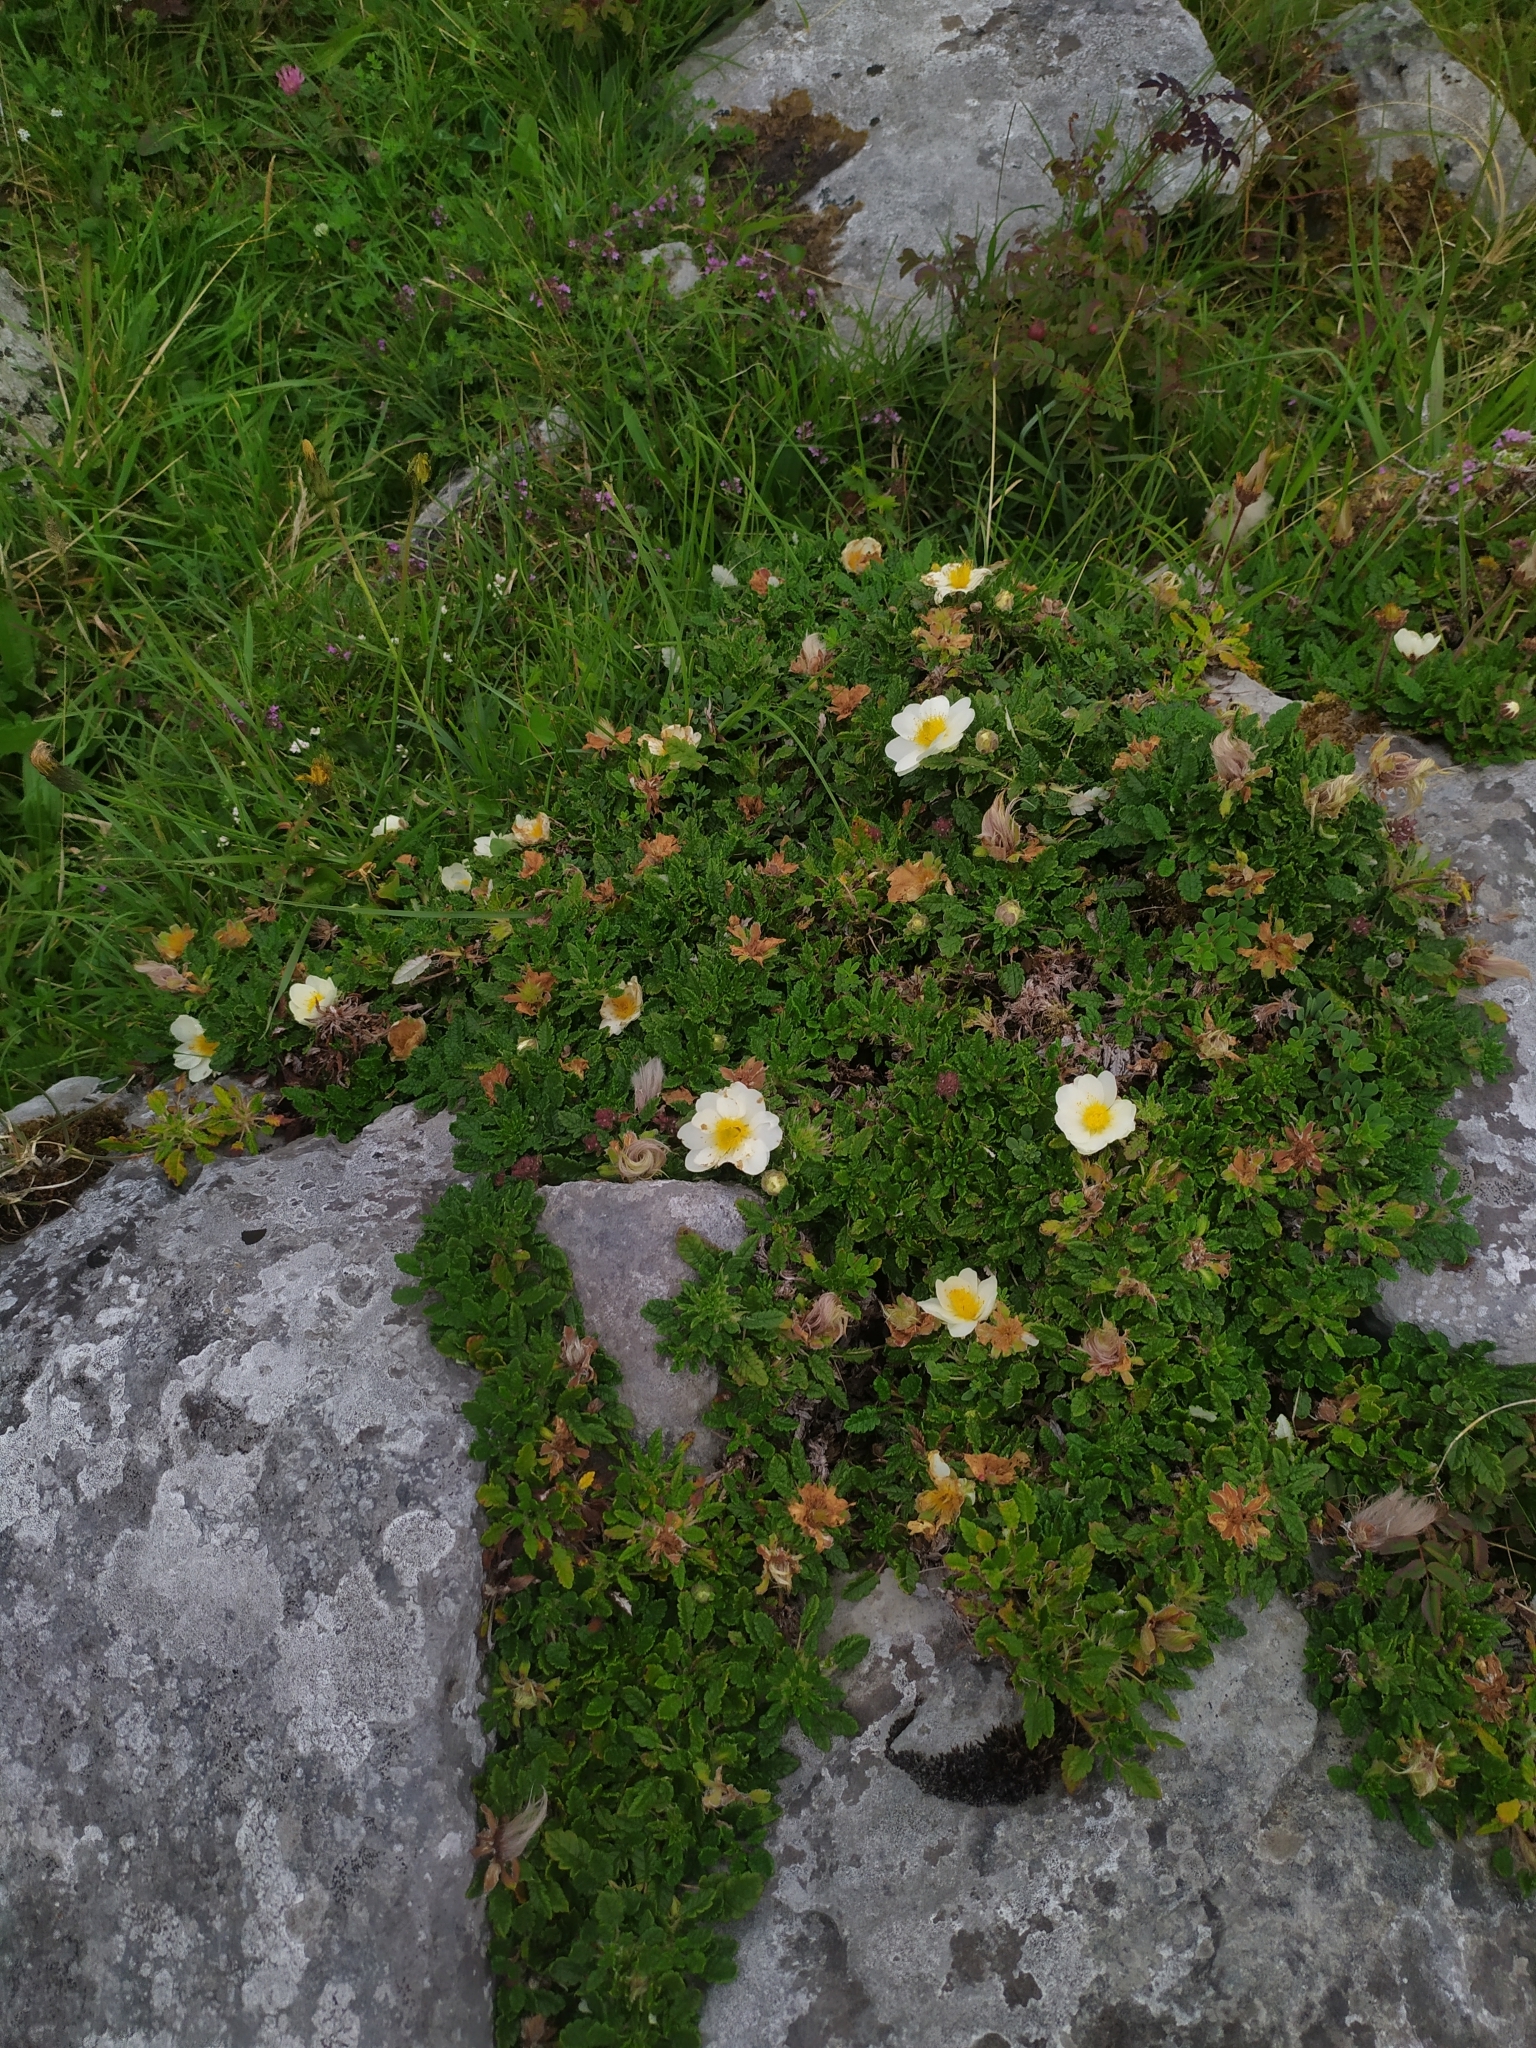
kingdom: Plantae
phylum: Tracheophyta
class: Magnoliopsida
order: Rosales
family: Rosaceae
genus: Dryas
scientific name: Dryas octopetala
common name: Eight-petal mountain-avens
